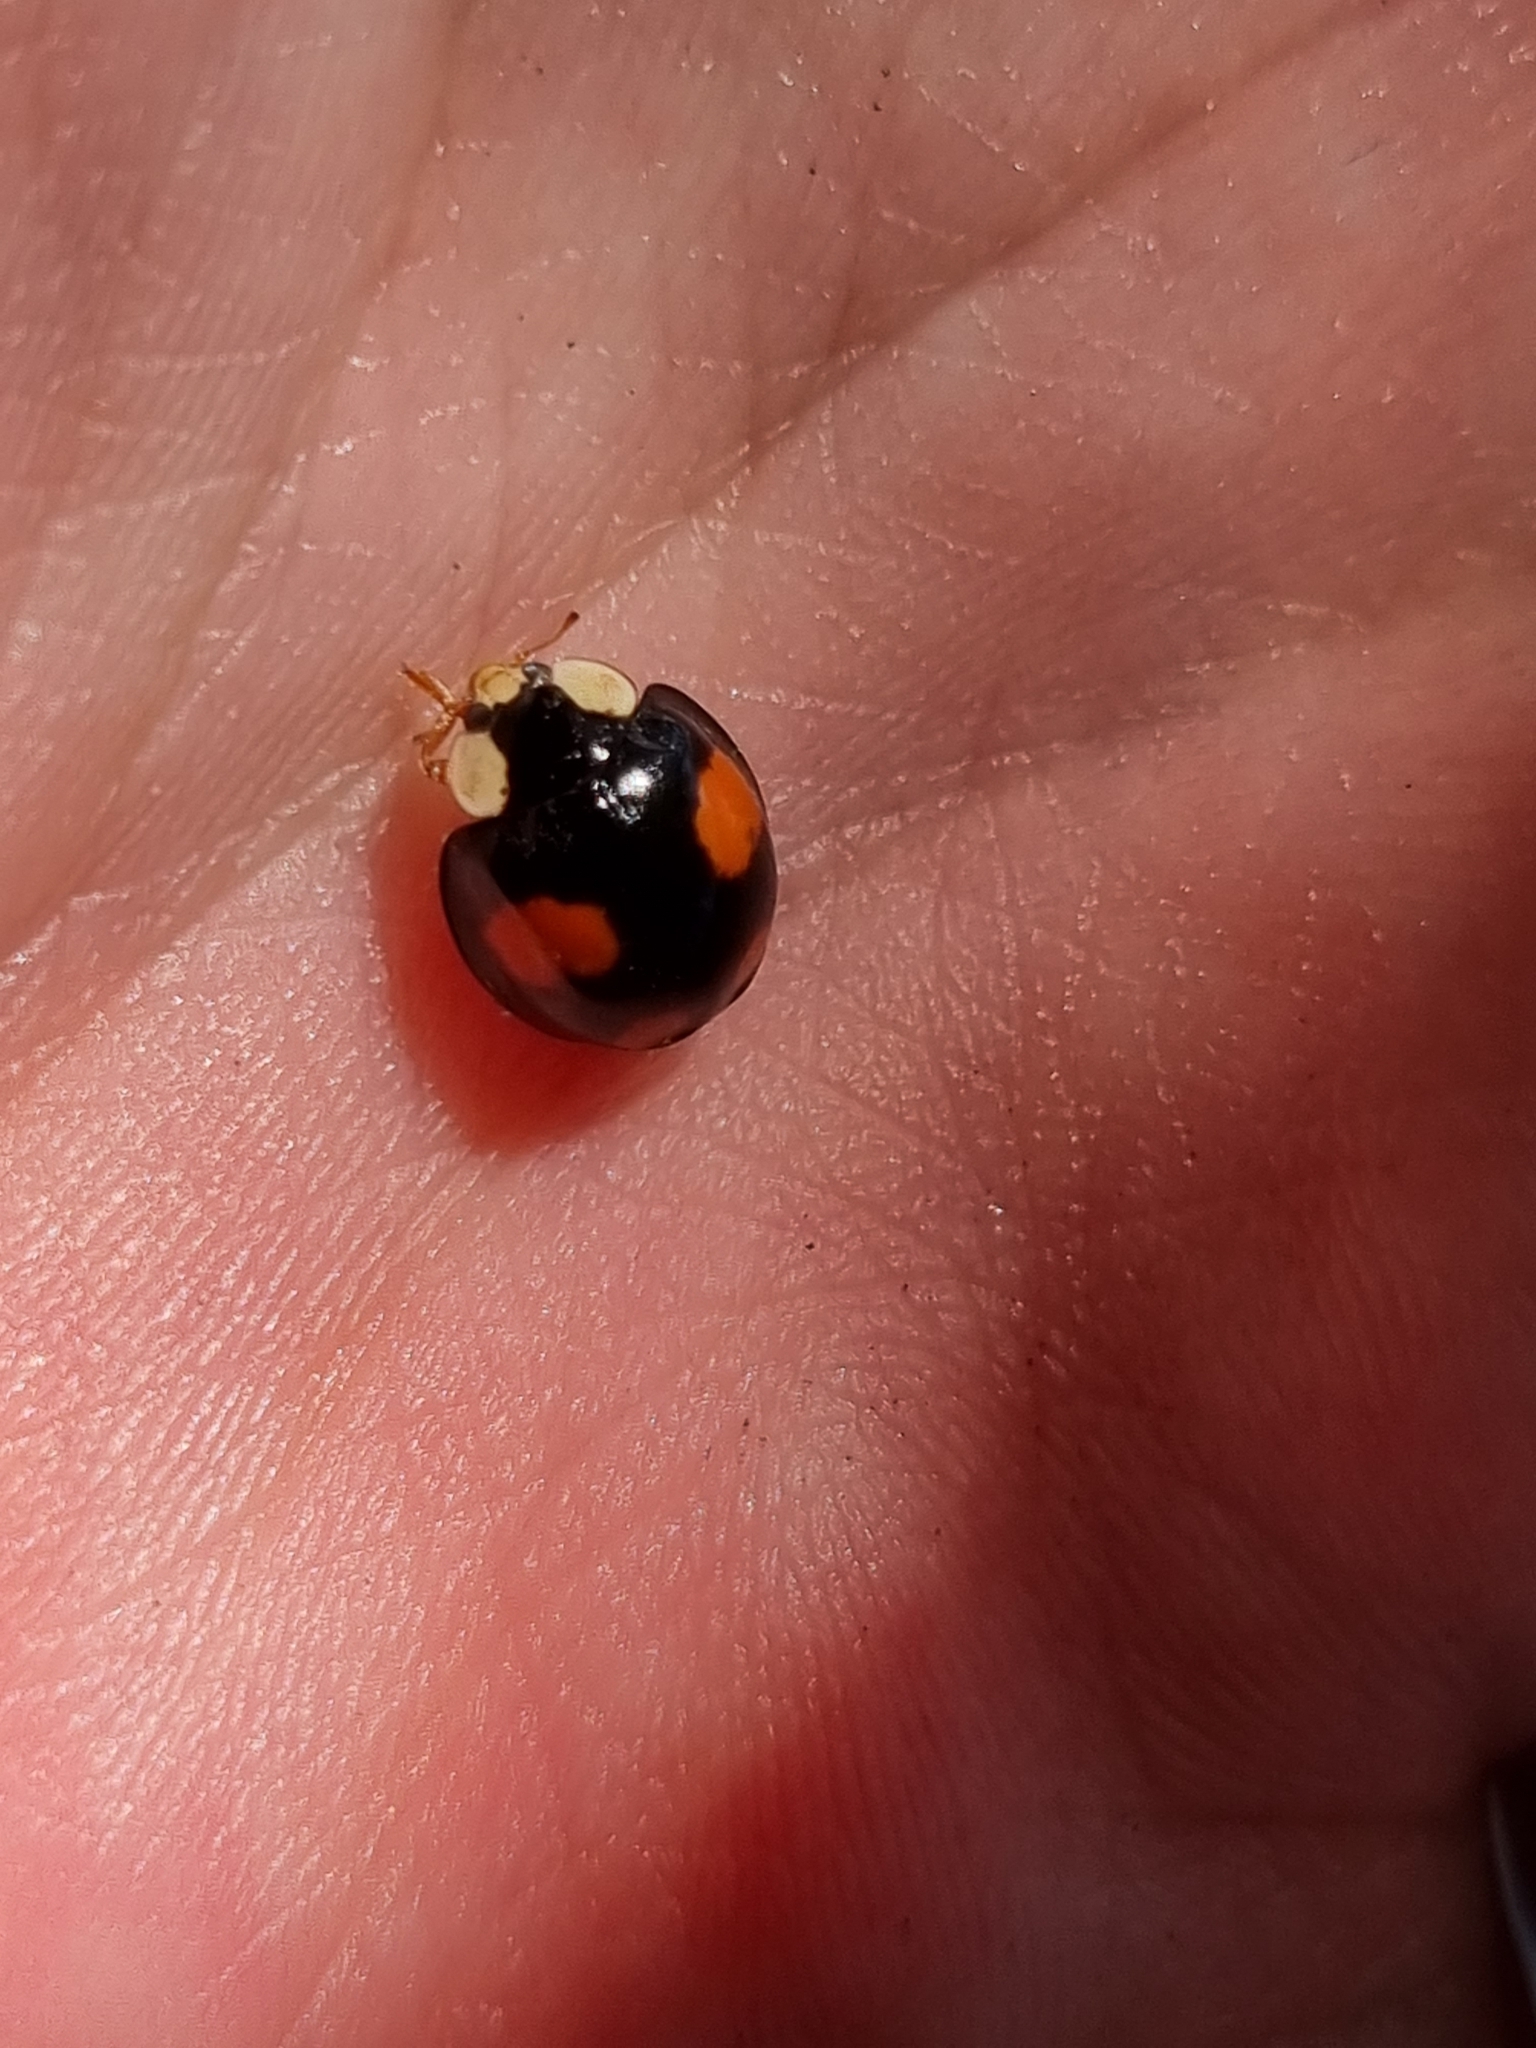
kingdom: Animalia
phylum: Arthropoda
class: Insecta
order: Coleoptera
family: Coccinellidae
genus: Harmonia
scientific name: Harmonia axyridis
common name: Harlequin ladybird
